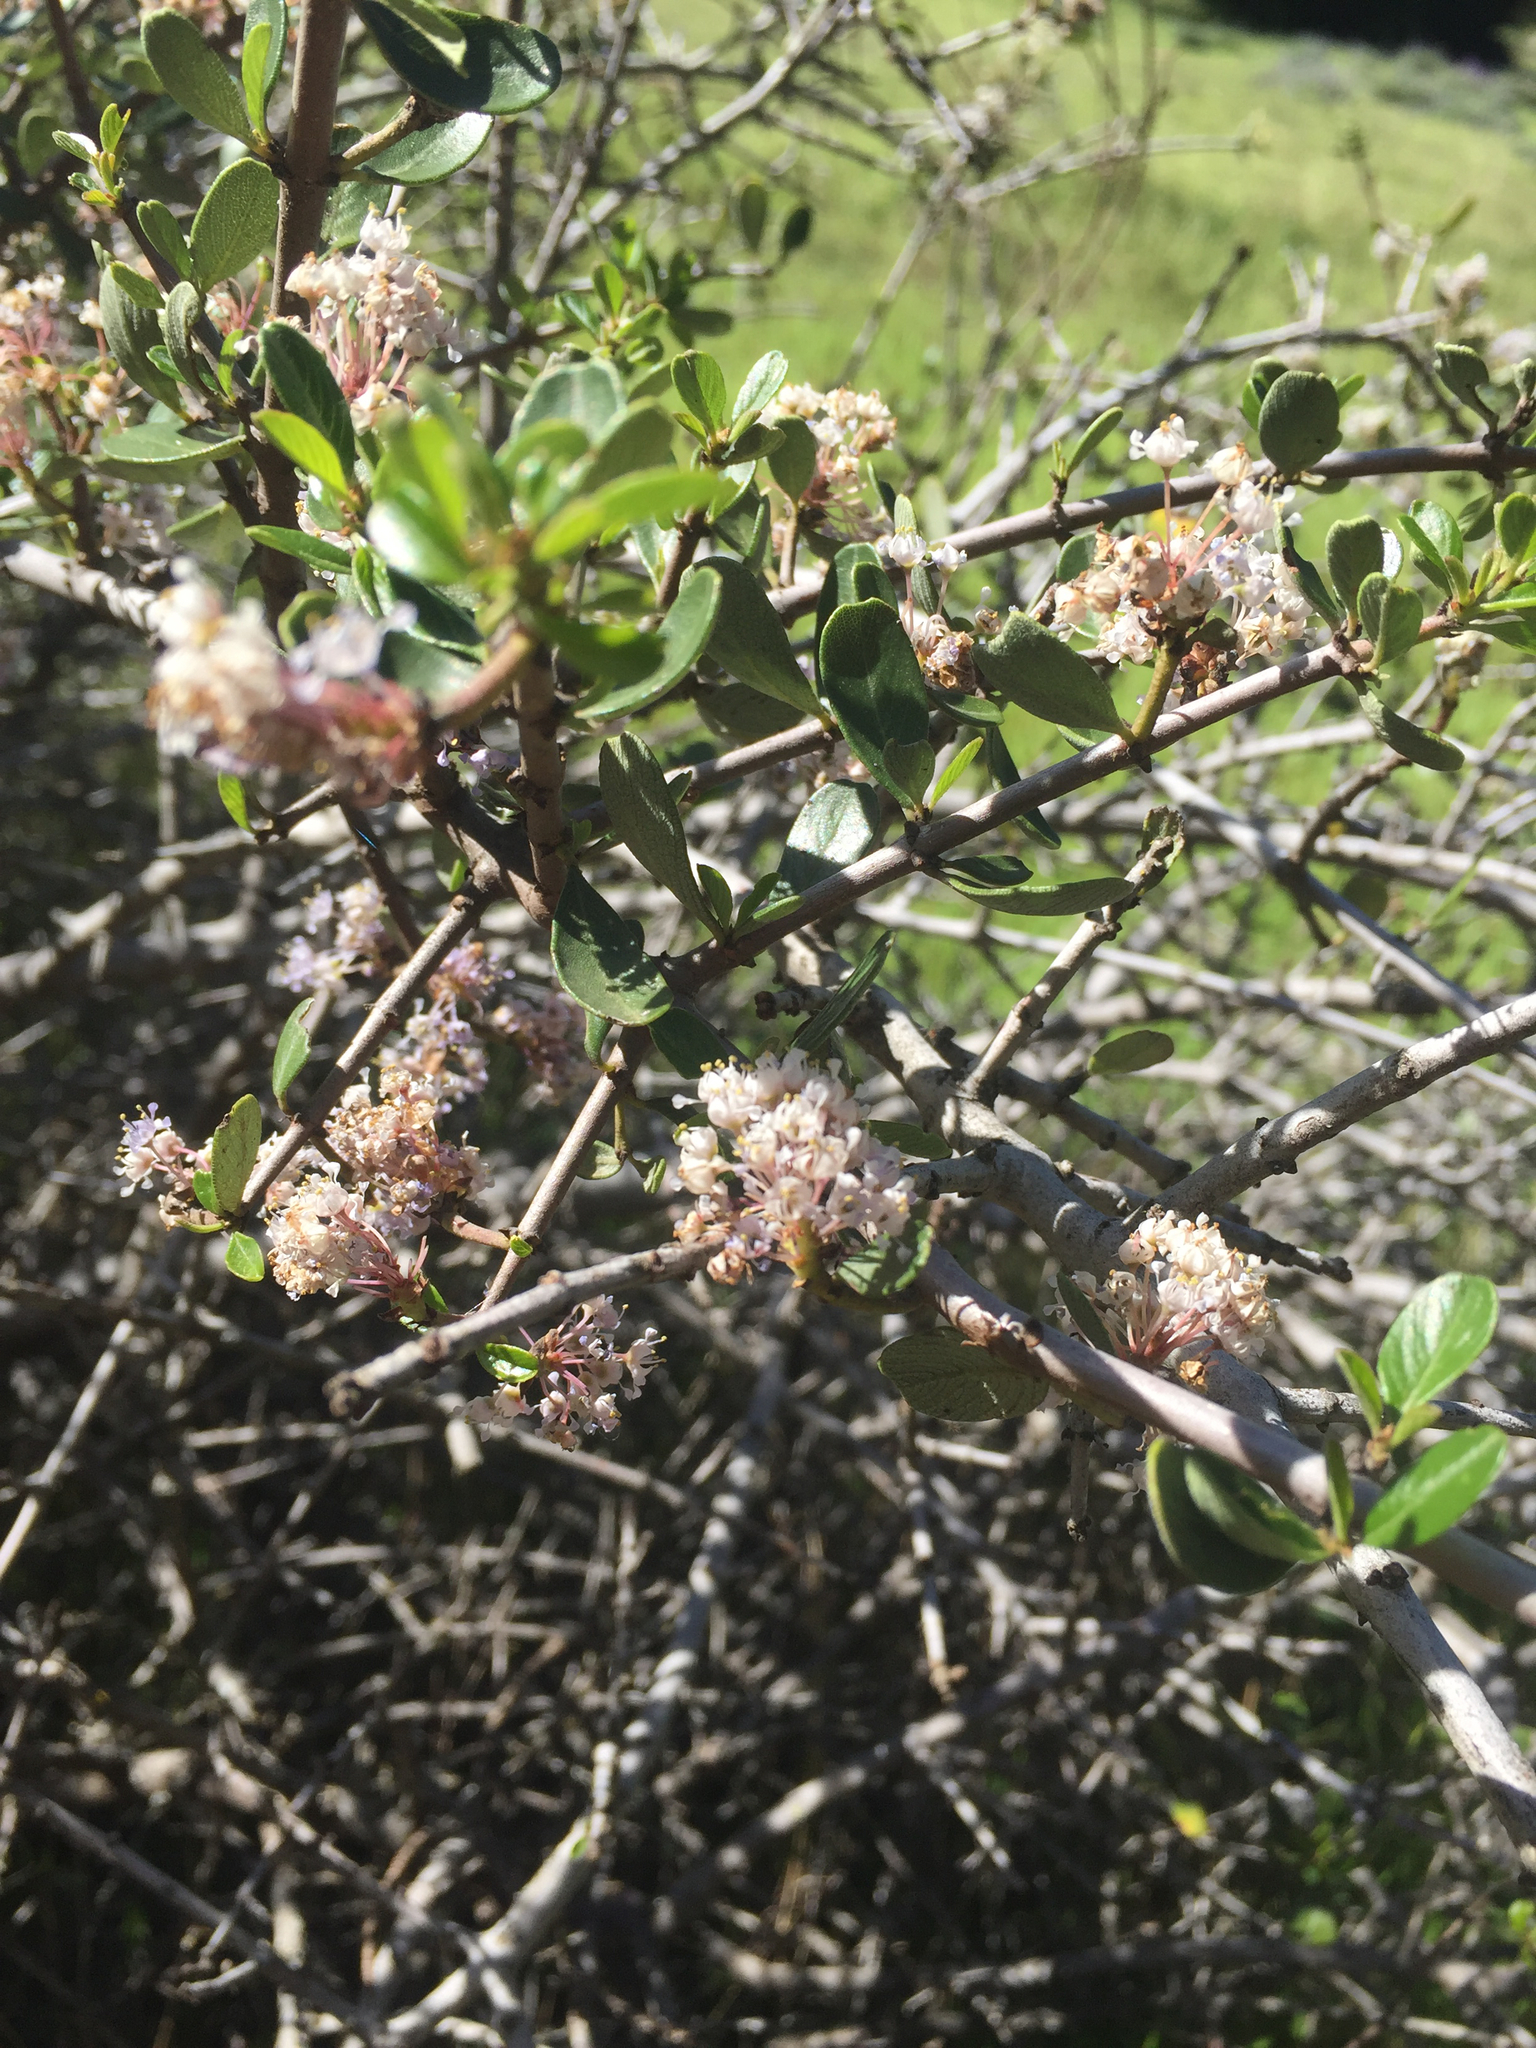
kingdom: Plantae
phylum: Tracheophyta
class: Magnoliopsida
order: Rosales
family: Rhamnaceae
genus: Ceanothus
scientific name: Ceanothus cuneatus
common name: Cuneate ceanothus
